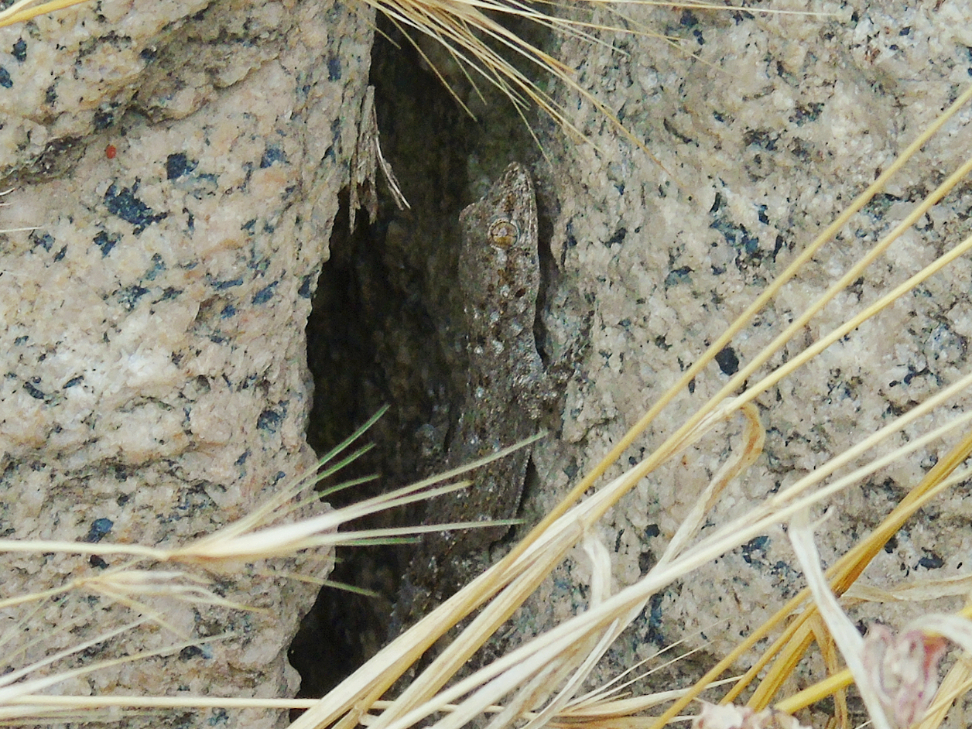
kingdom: Animalia
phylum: Chordata
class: Squamata
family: Gekkonidae
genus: Mediodactylus
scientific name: Mediodactylus kotschyi
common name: Kotschy's gecko
